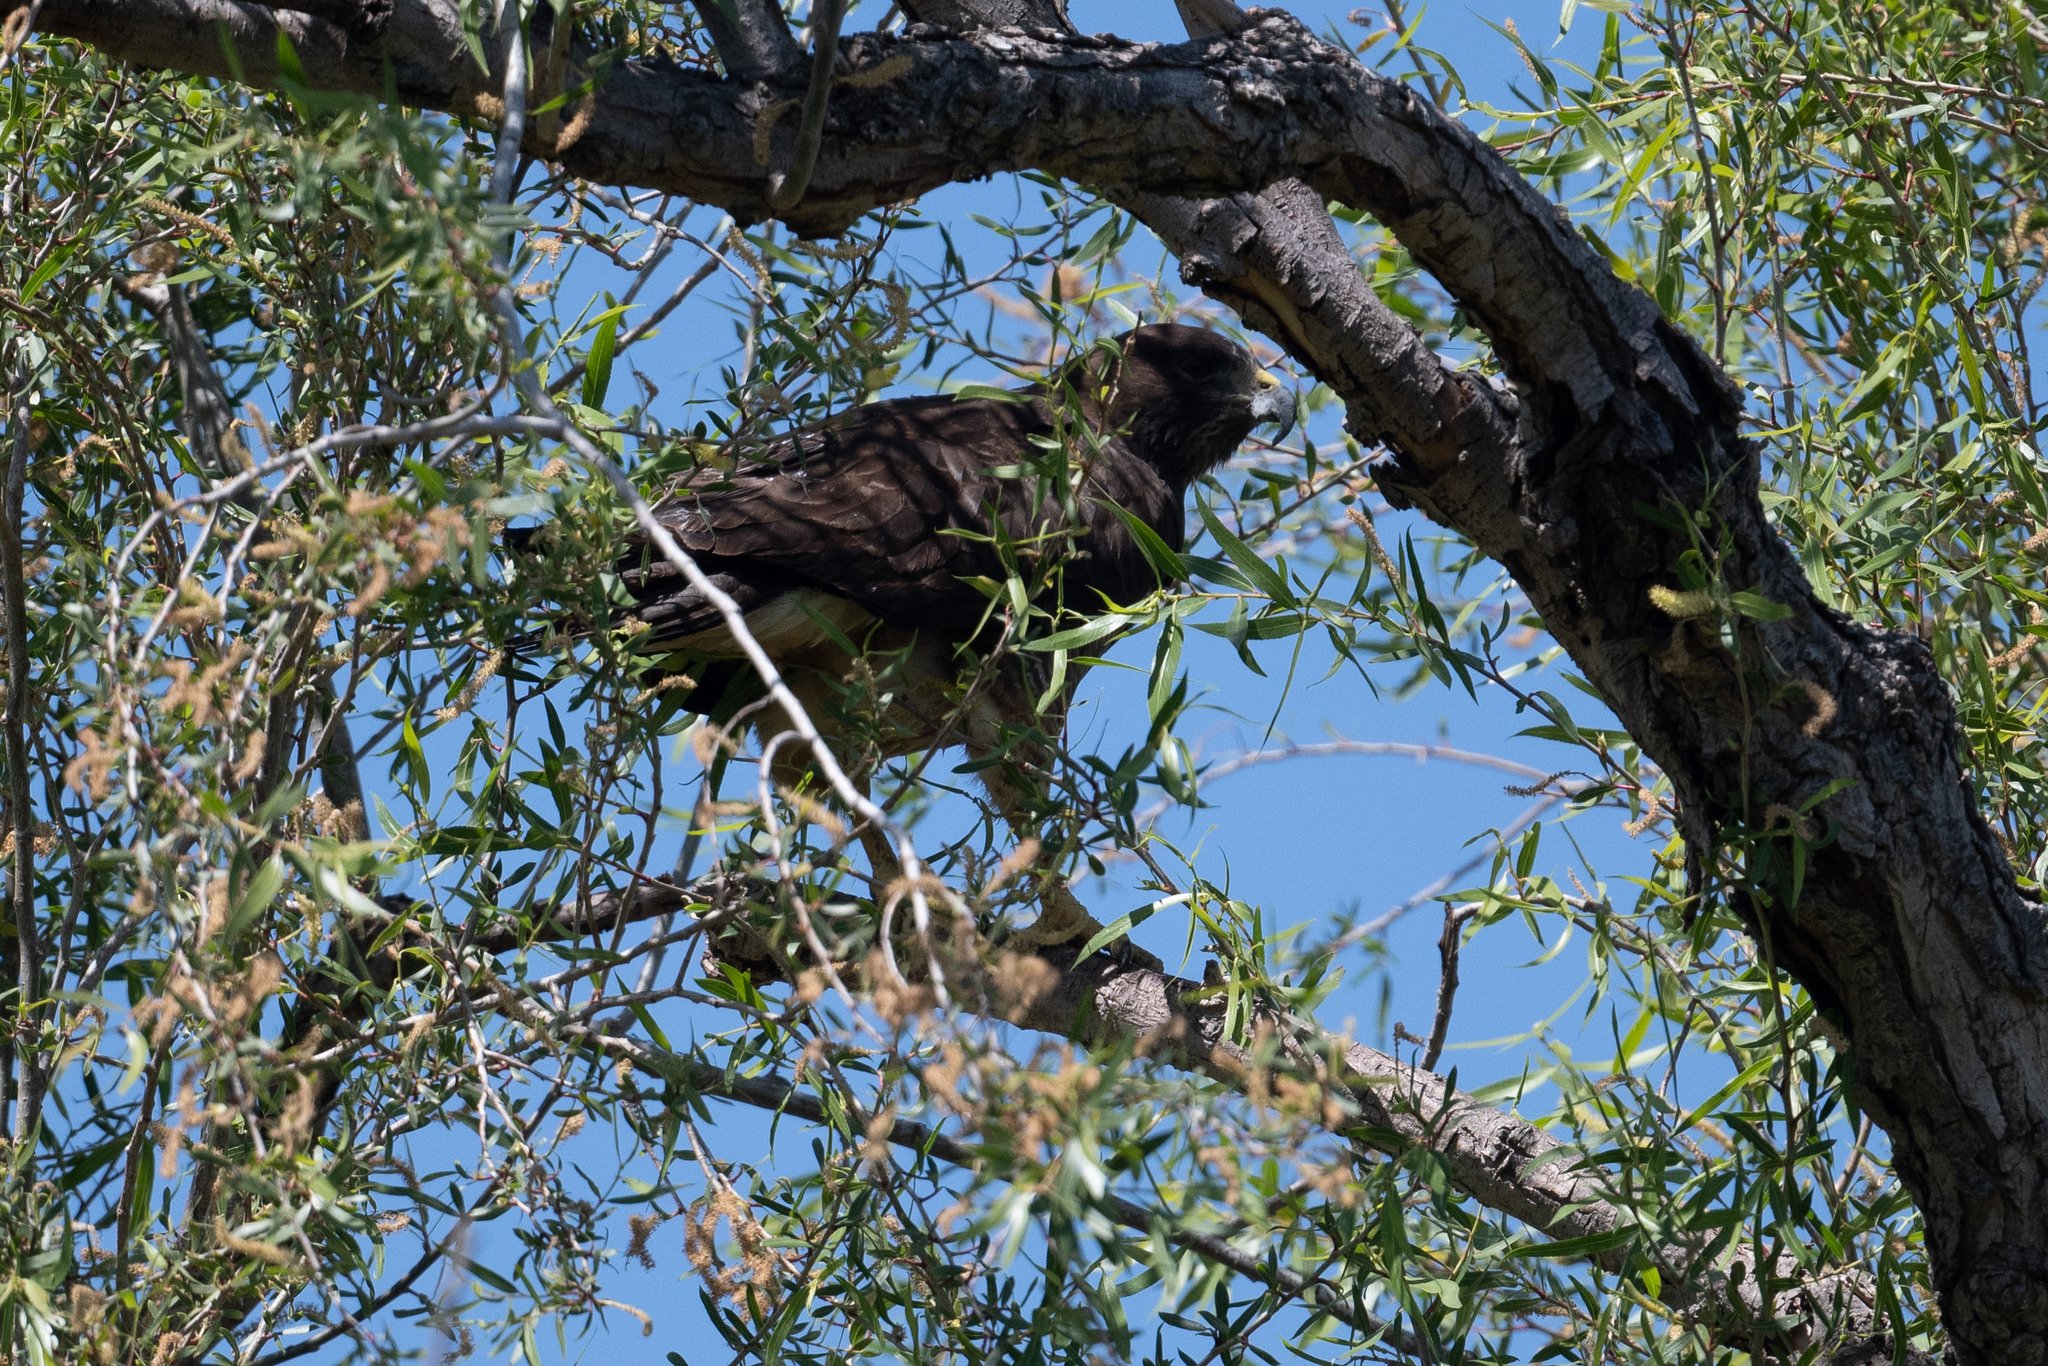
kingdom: Animalia
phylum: Chordata
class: Aves
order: Accipitriformes
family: Accipitridae
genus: Buteo
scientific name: Buteo swainsoni
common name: Swainson's hawk
